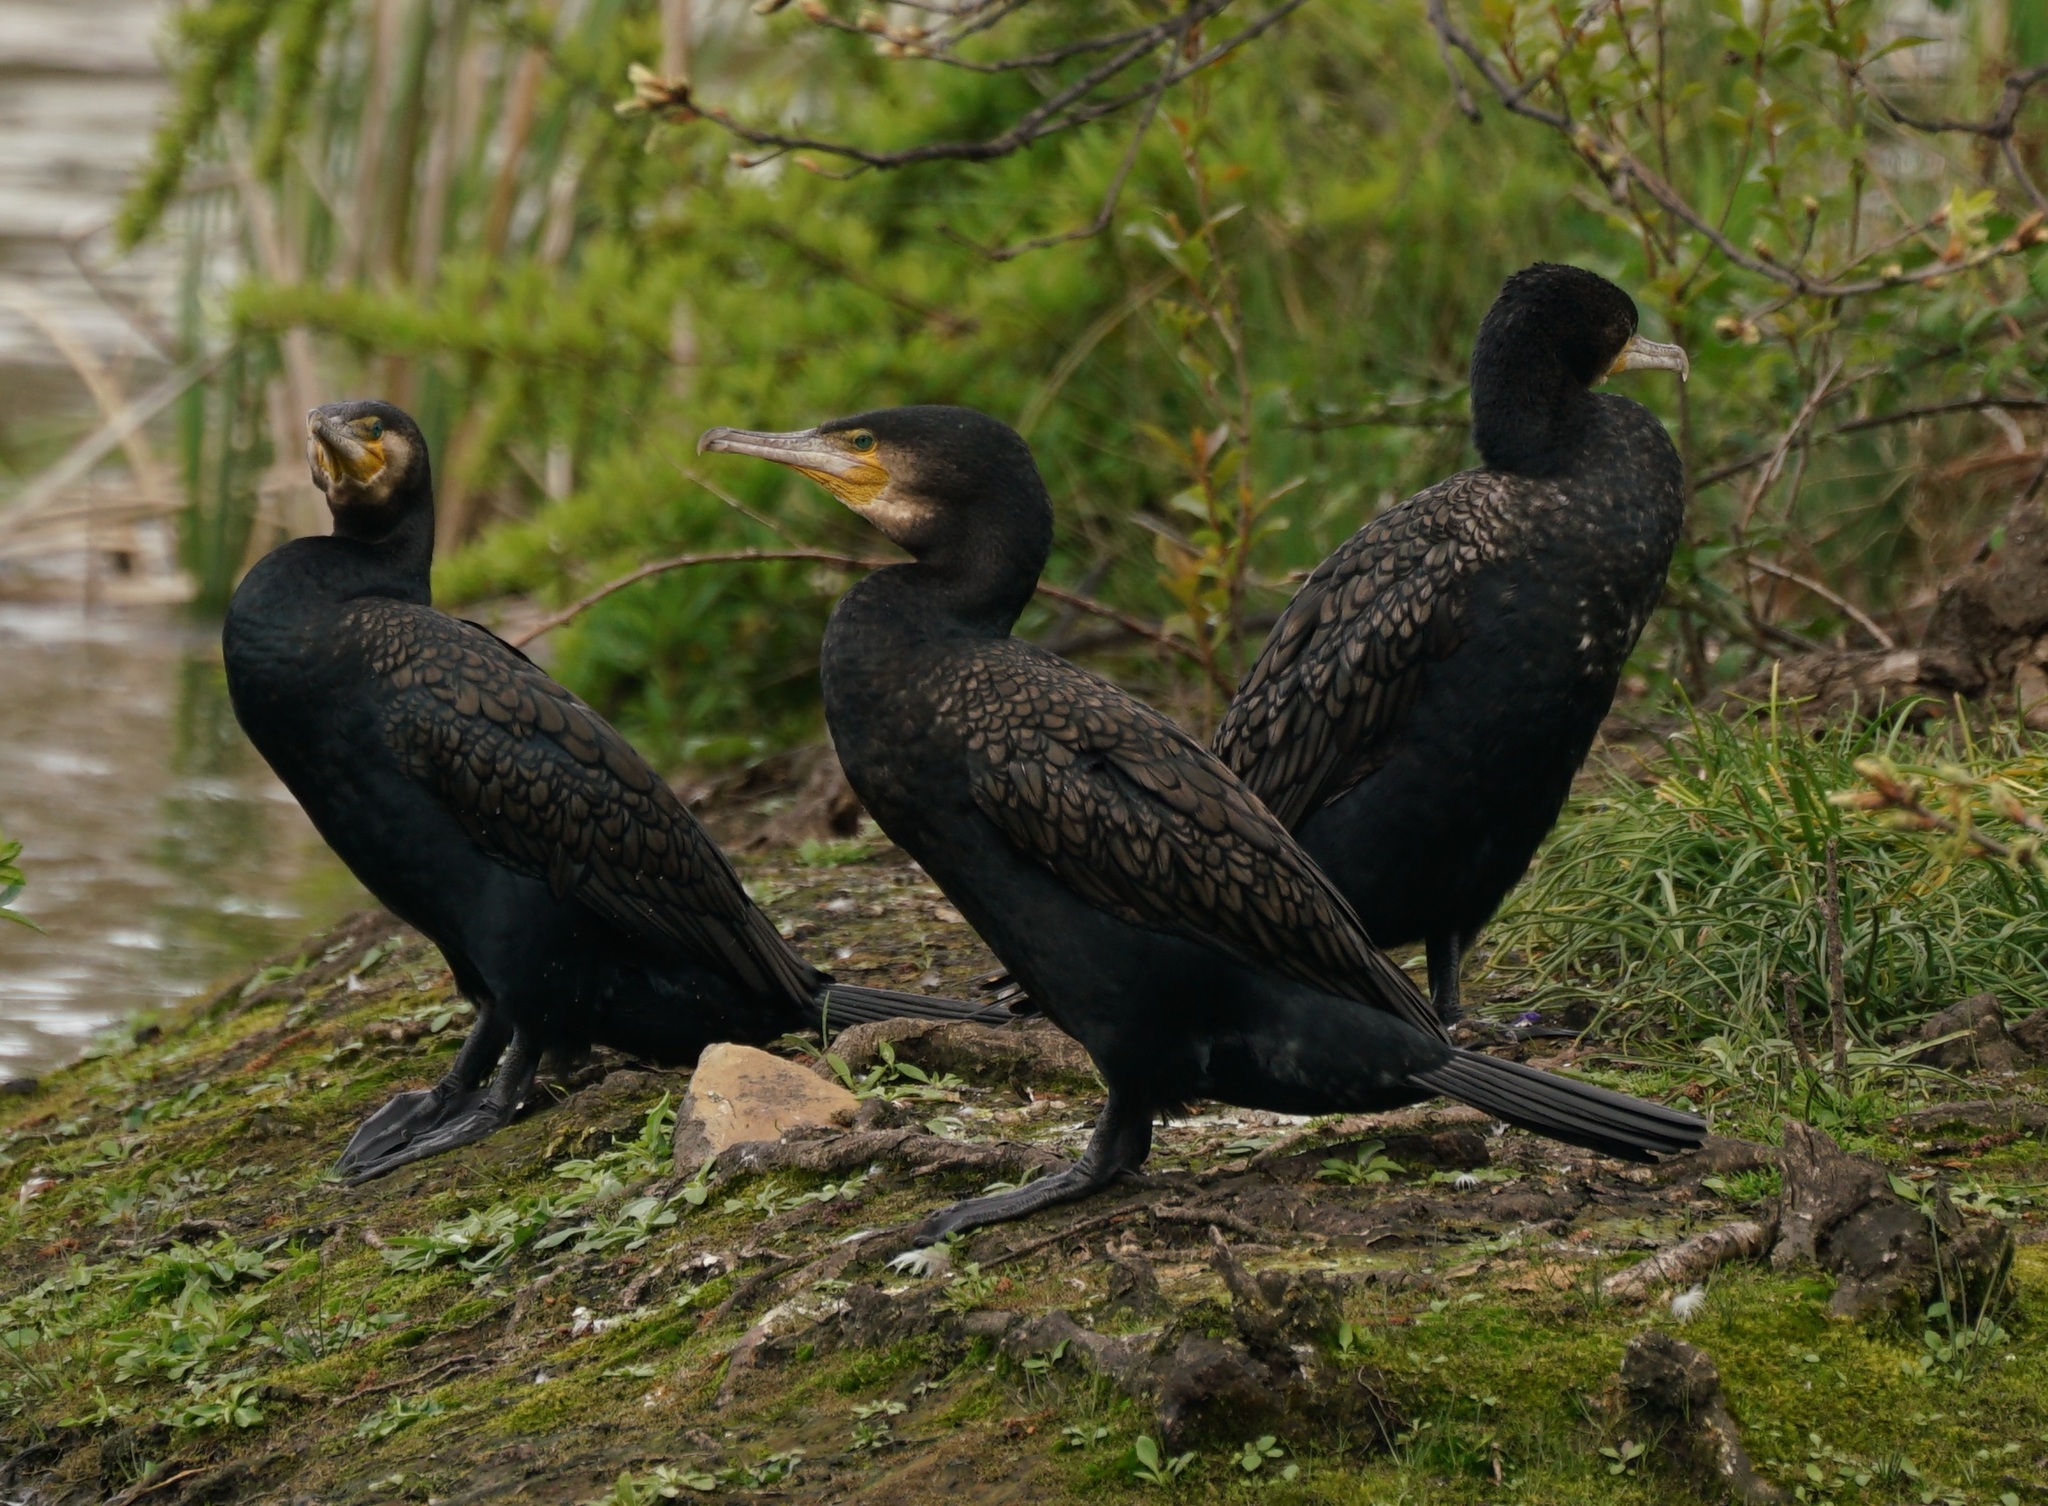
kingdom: Animalia
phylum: Chordata
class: Aves
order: Suliformes
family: Phalacrocoracidae
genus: Phalacrocorax
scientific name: Phalacrocorax carbo
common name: Great cormorant
